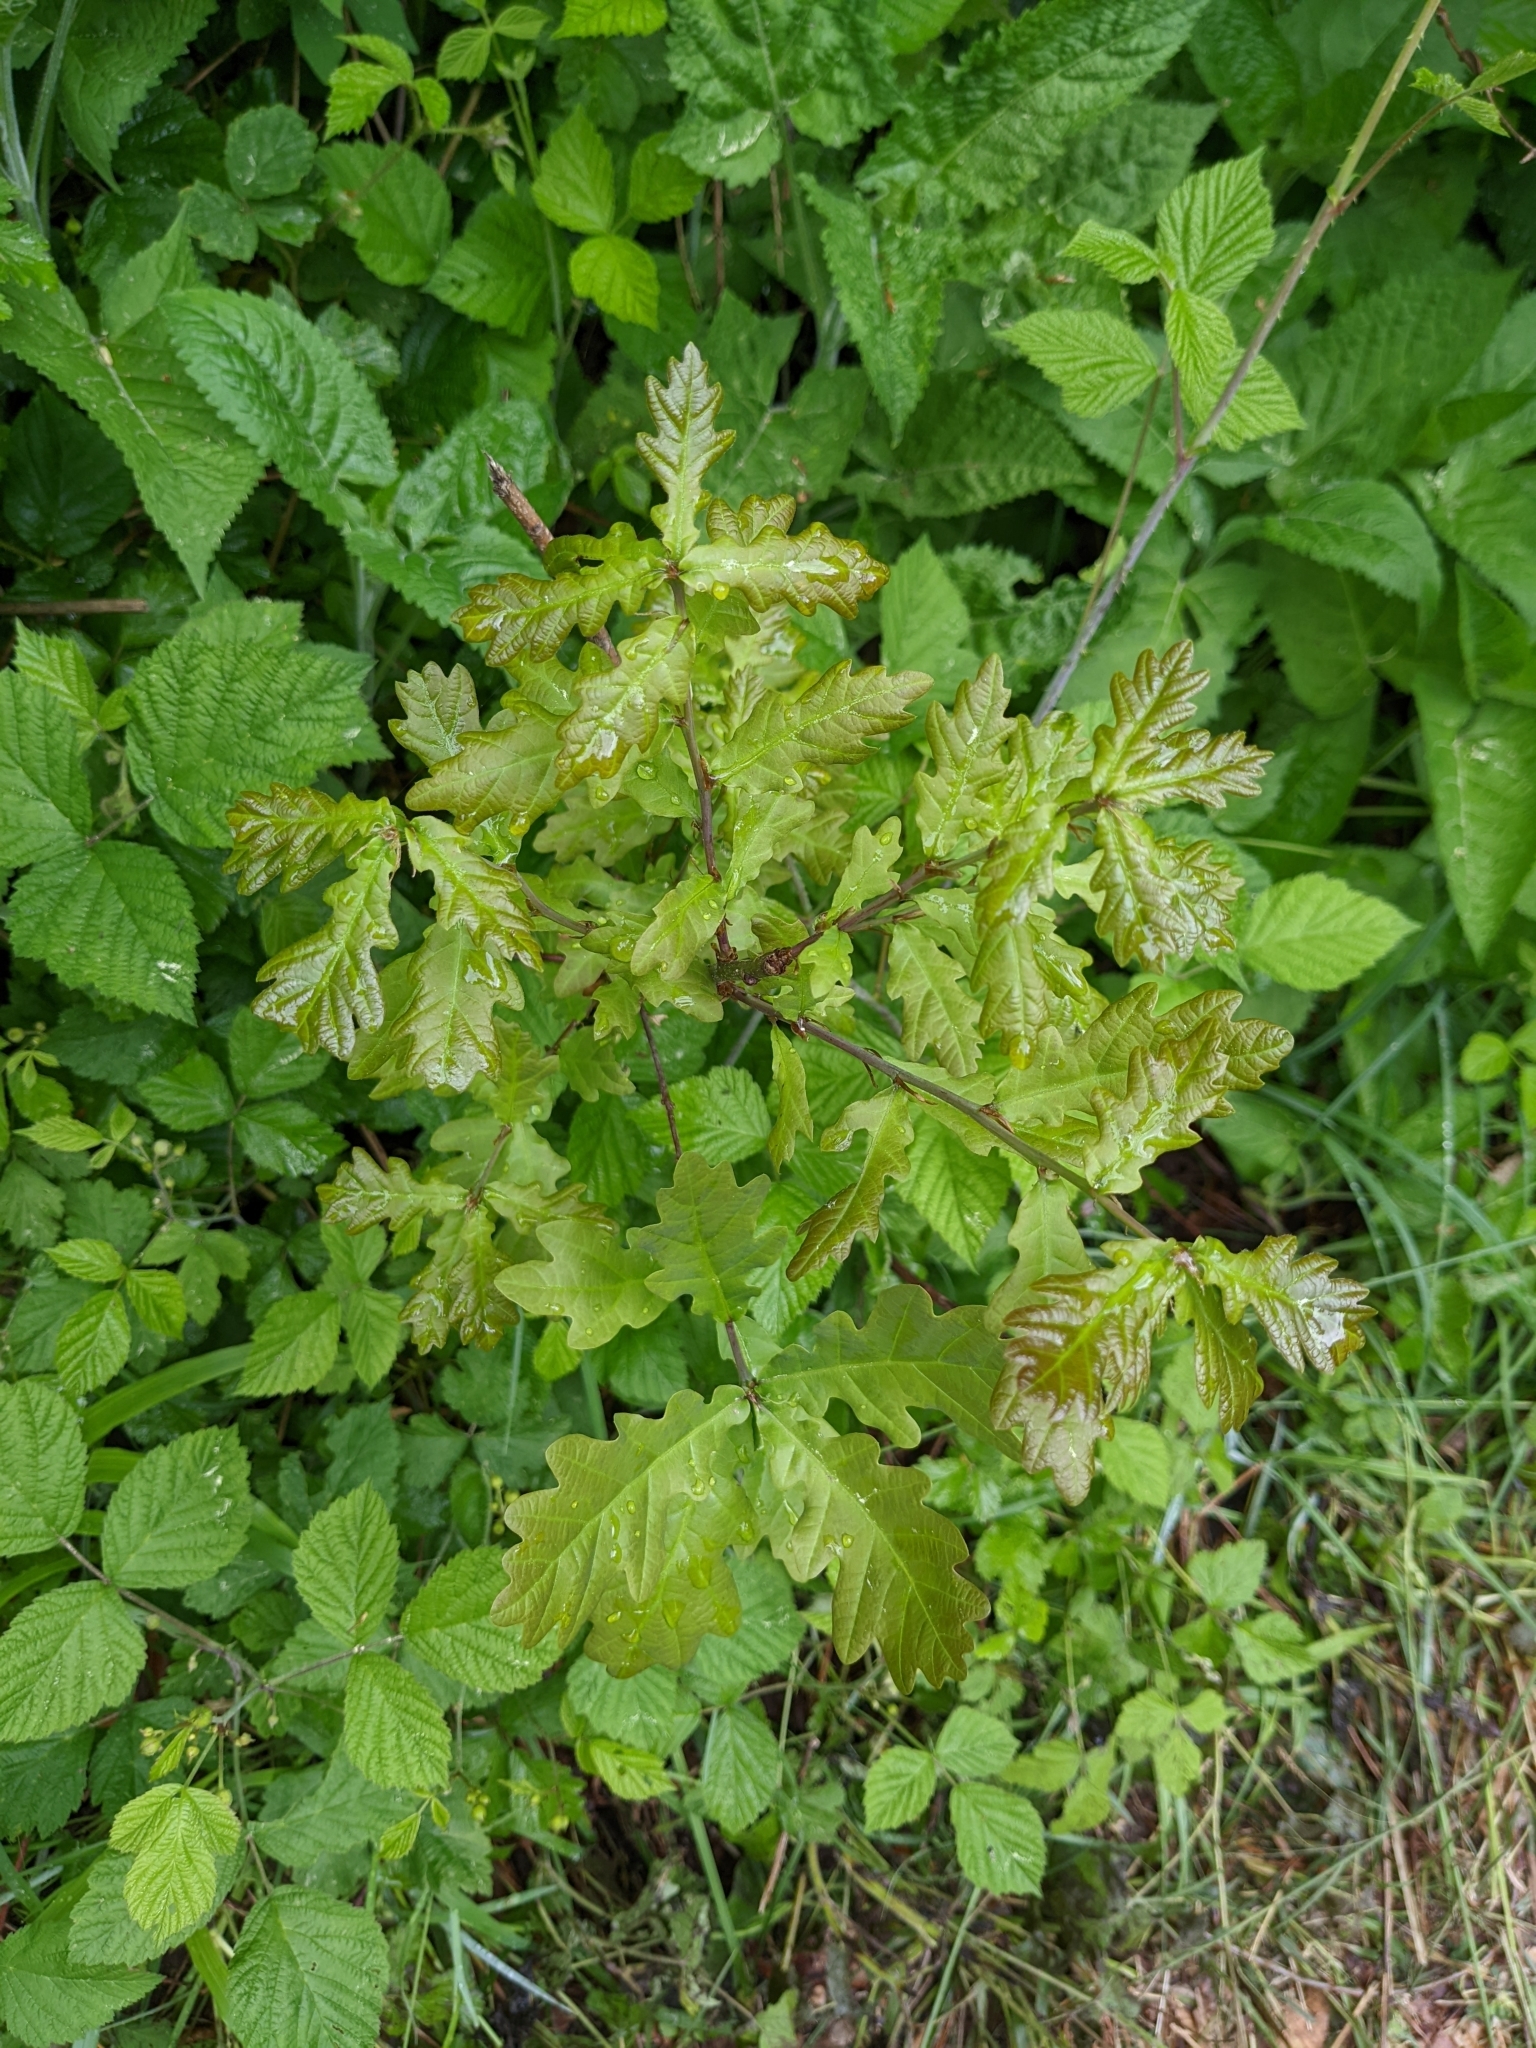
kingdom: Plantae
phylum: Tracheophyta
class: Magnoliopsida
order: Fagales
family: Fagaceae
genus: Quercus
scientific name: Quercus robur
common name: Pedunculate oak
